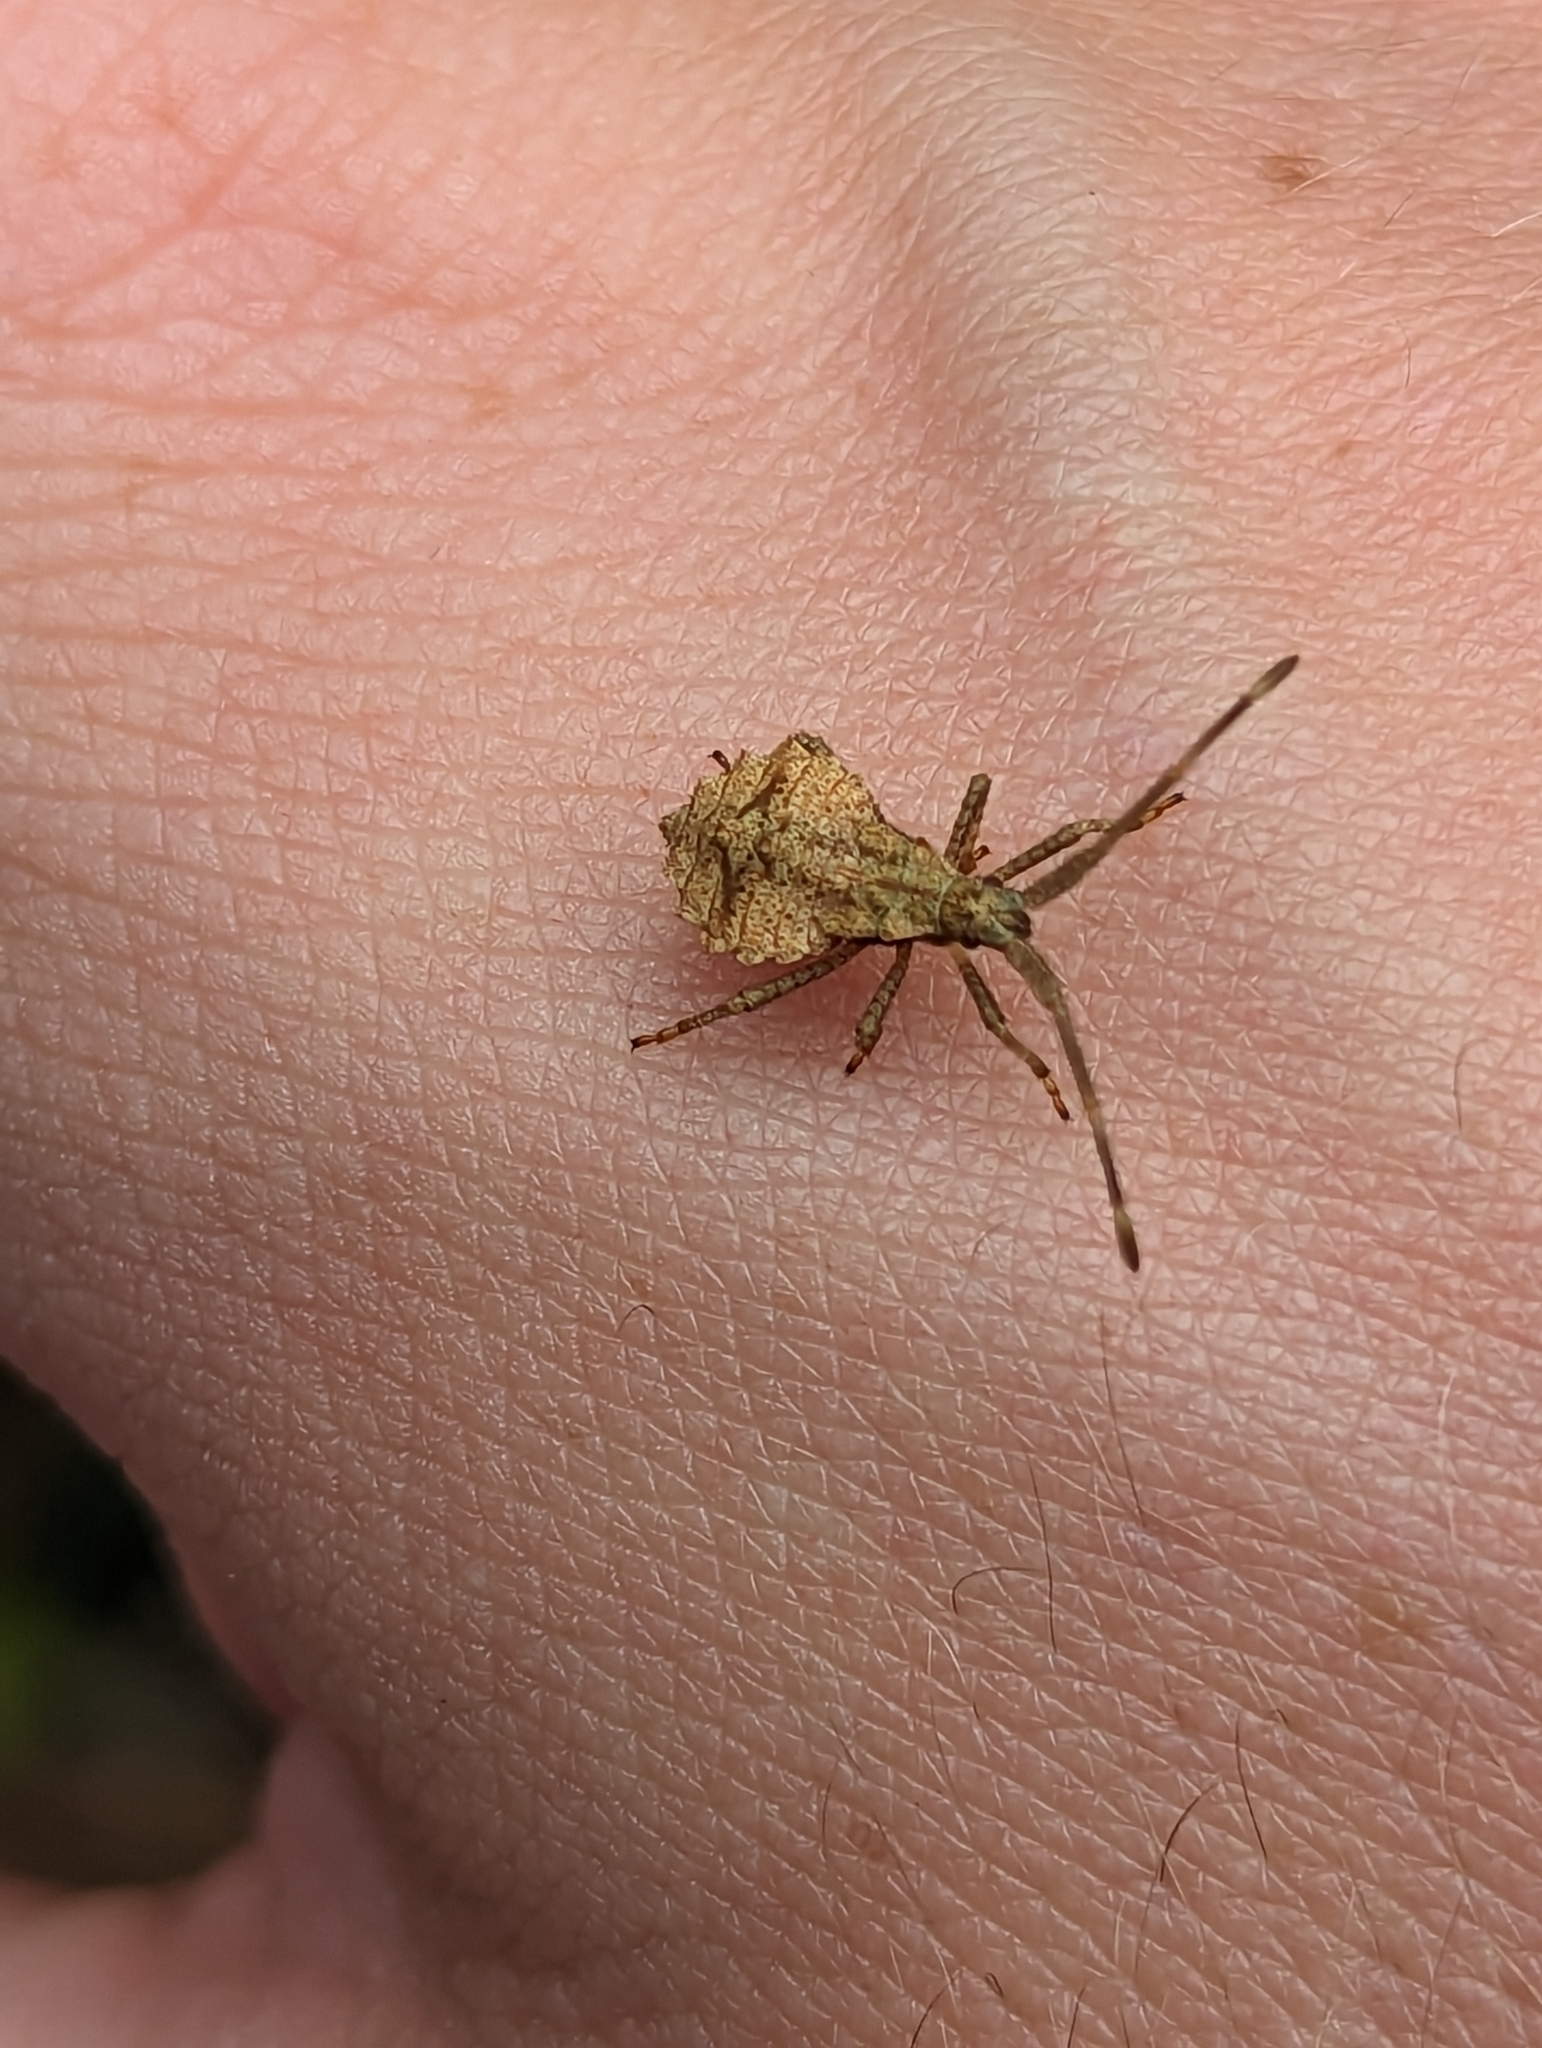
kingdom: Animalia
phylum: Arthropoda
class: Insecta
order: Hemiptera
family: Coreidae
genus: Coreus
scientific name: Coreus marginatus
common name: Dock bug
